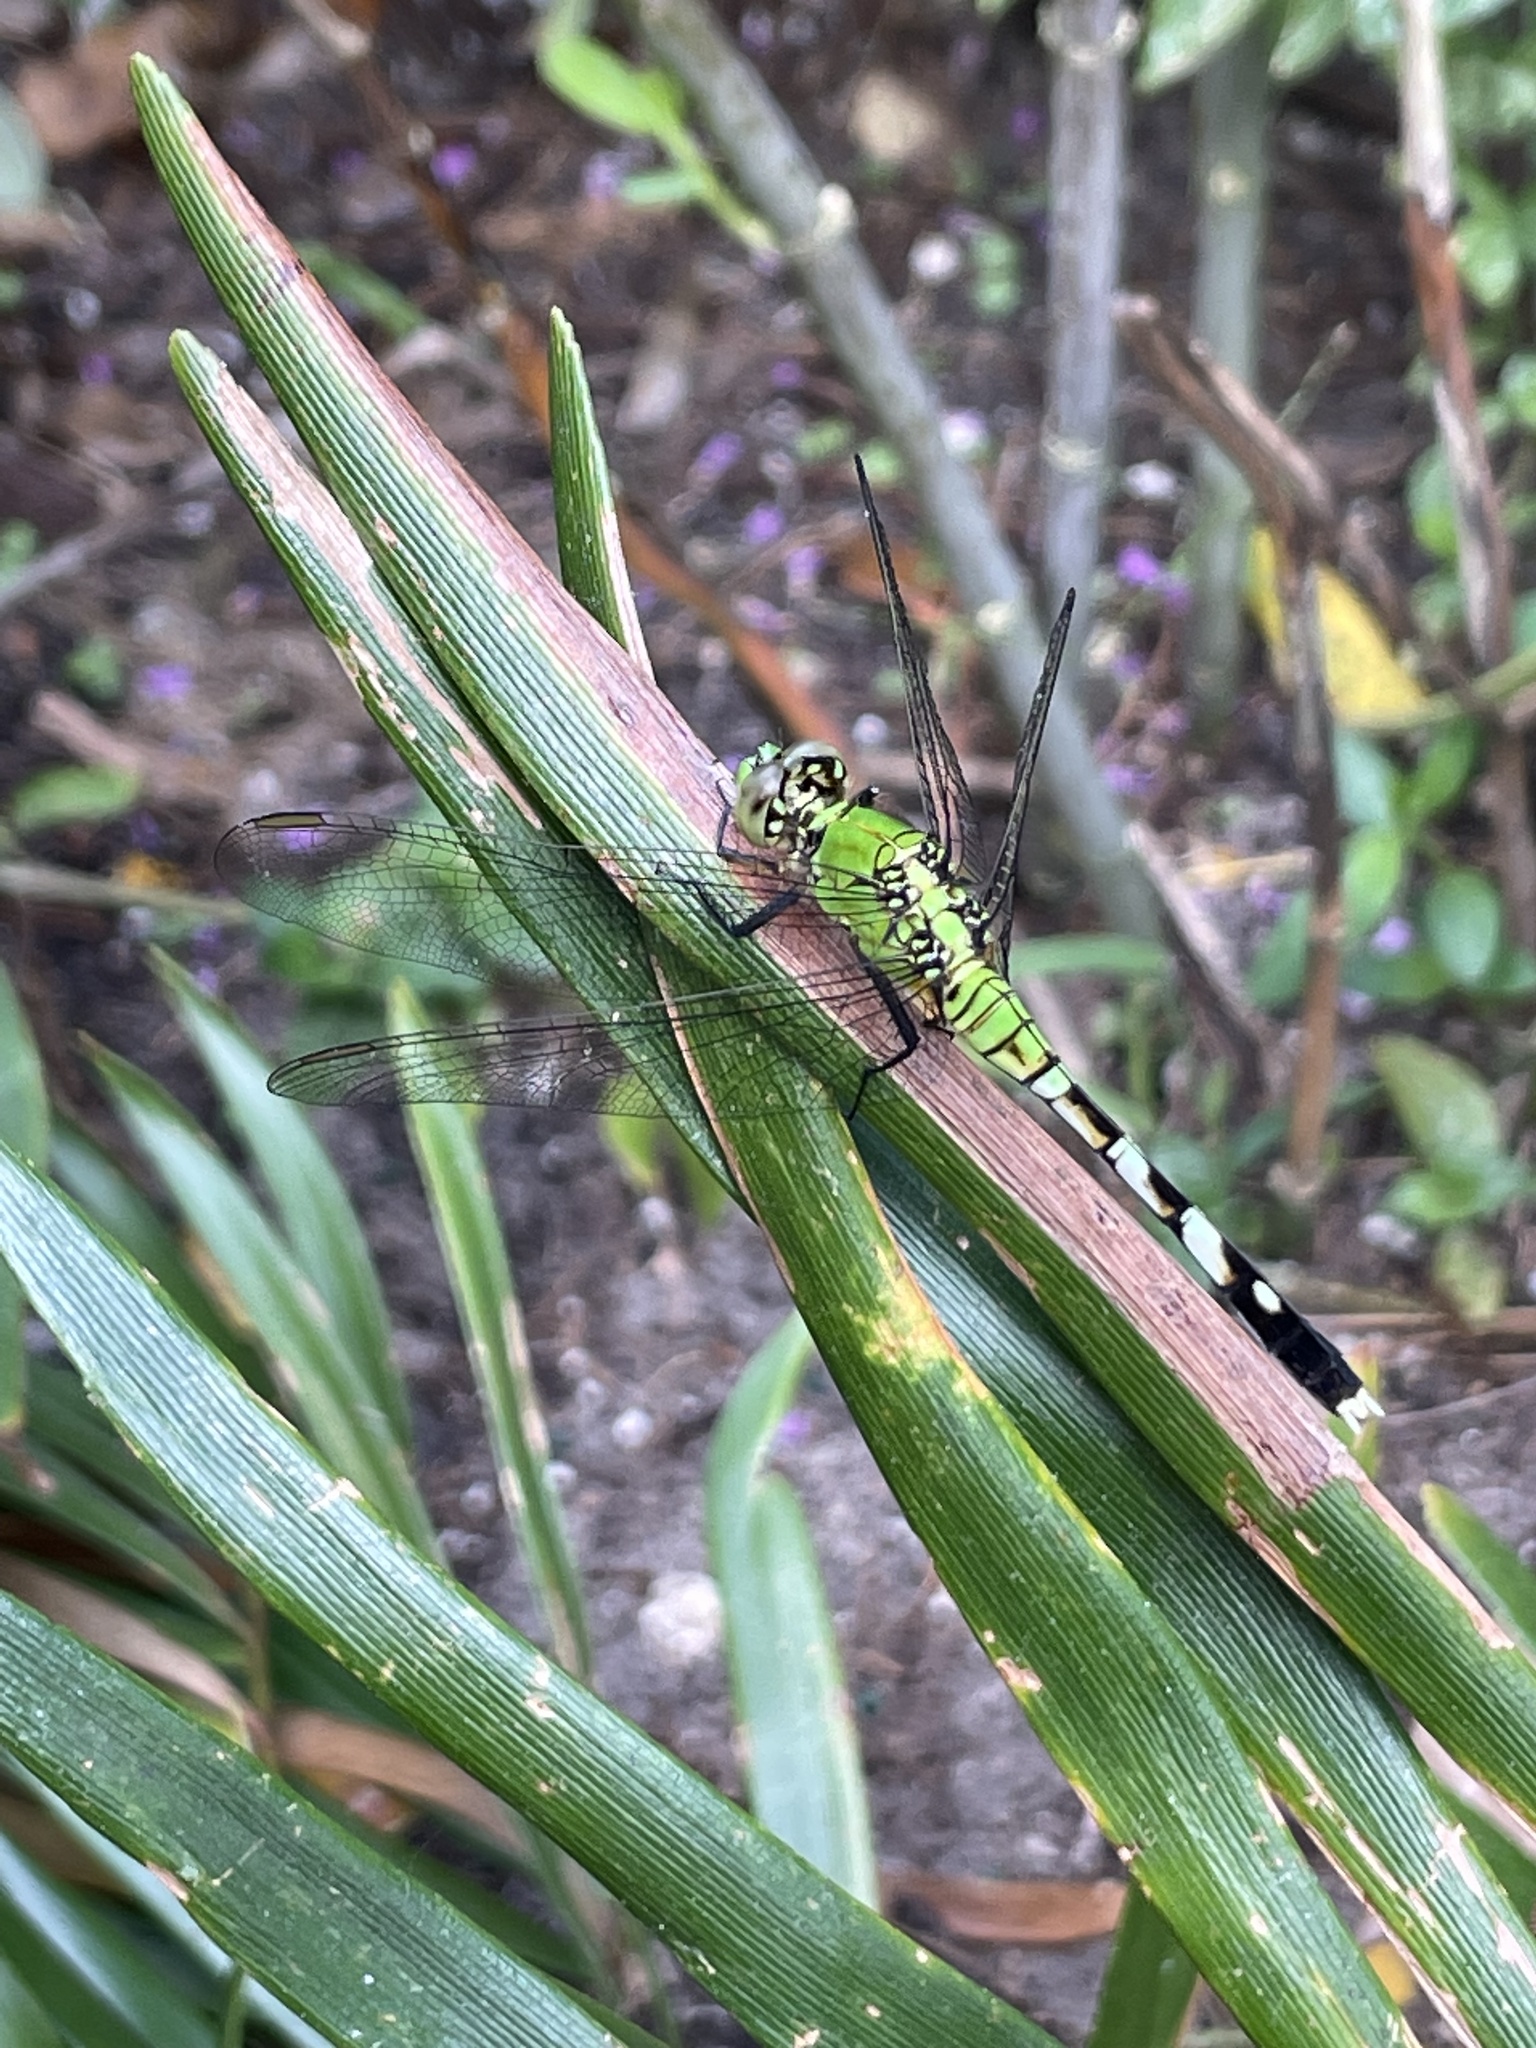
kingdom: Animalia
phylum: Arthropoda
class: Insecta
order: Odonata
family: Libellulidae
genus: Erythemis
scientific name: Erythemis simplicicollis
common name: Eastern pondhawk
